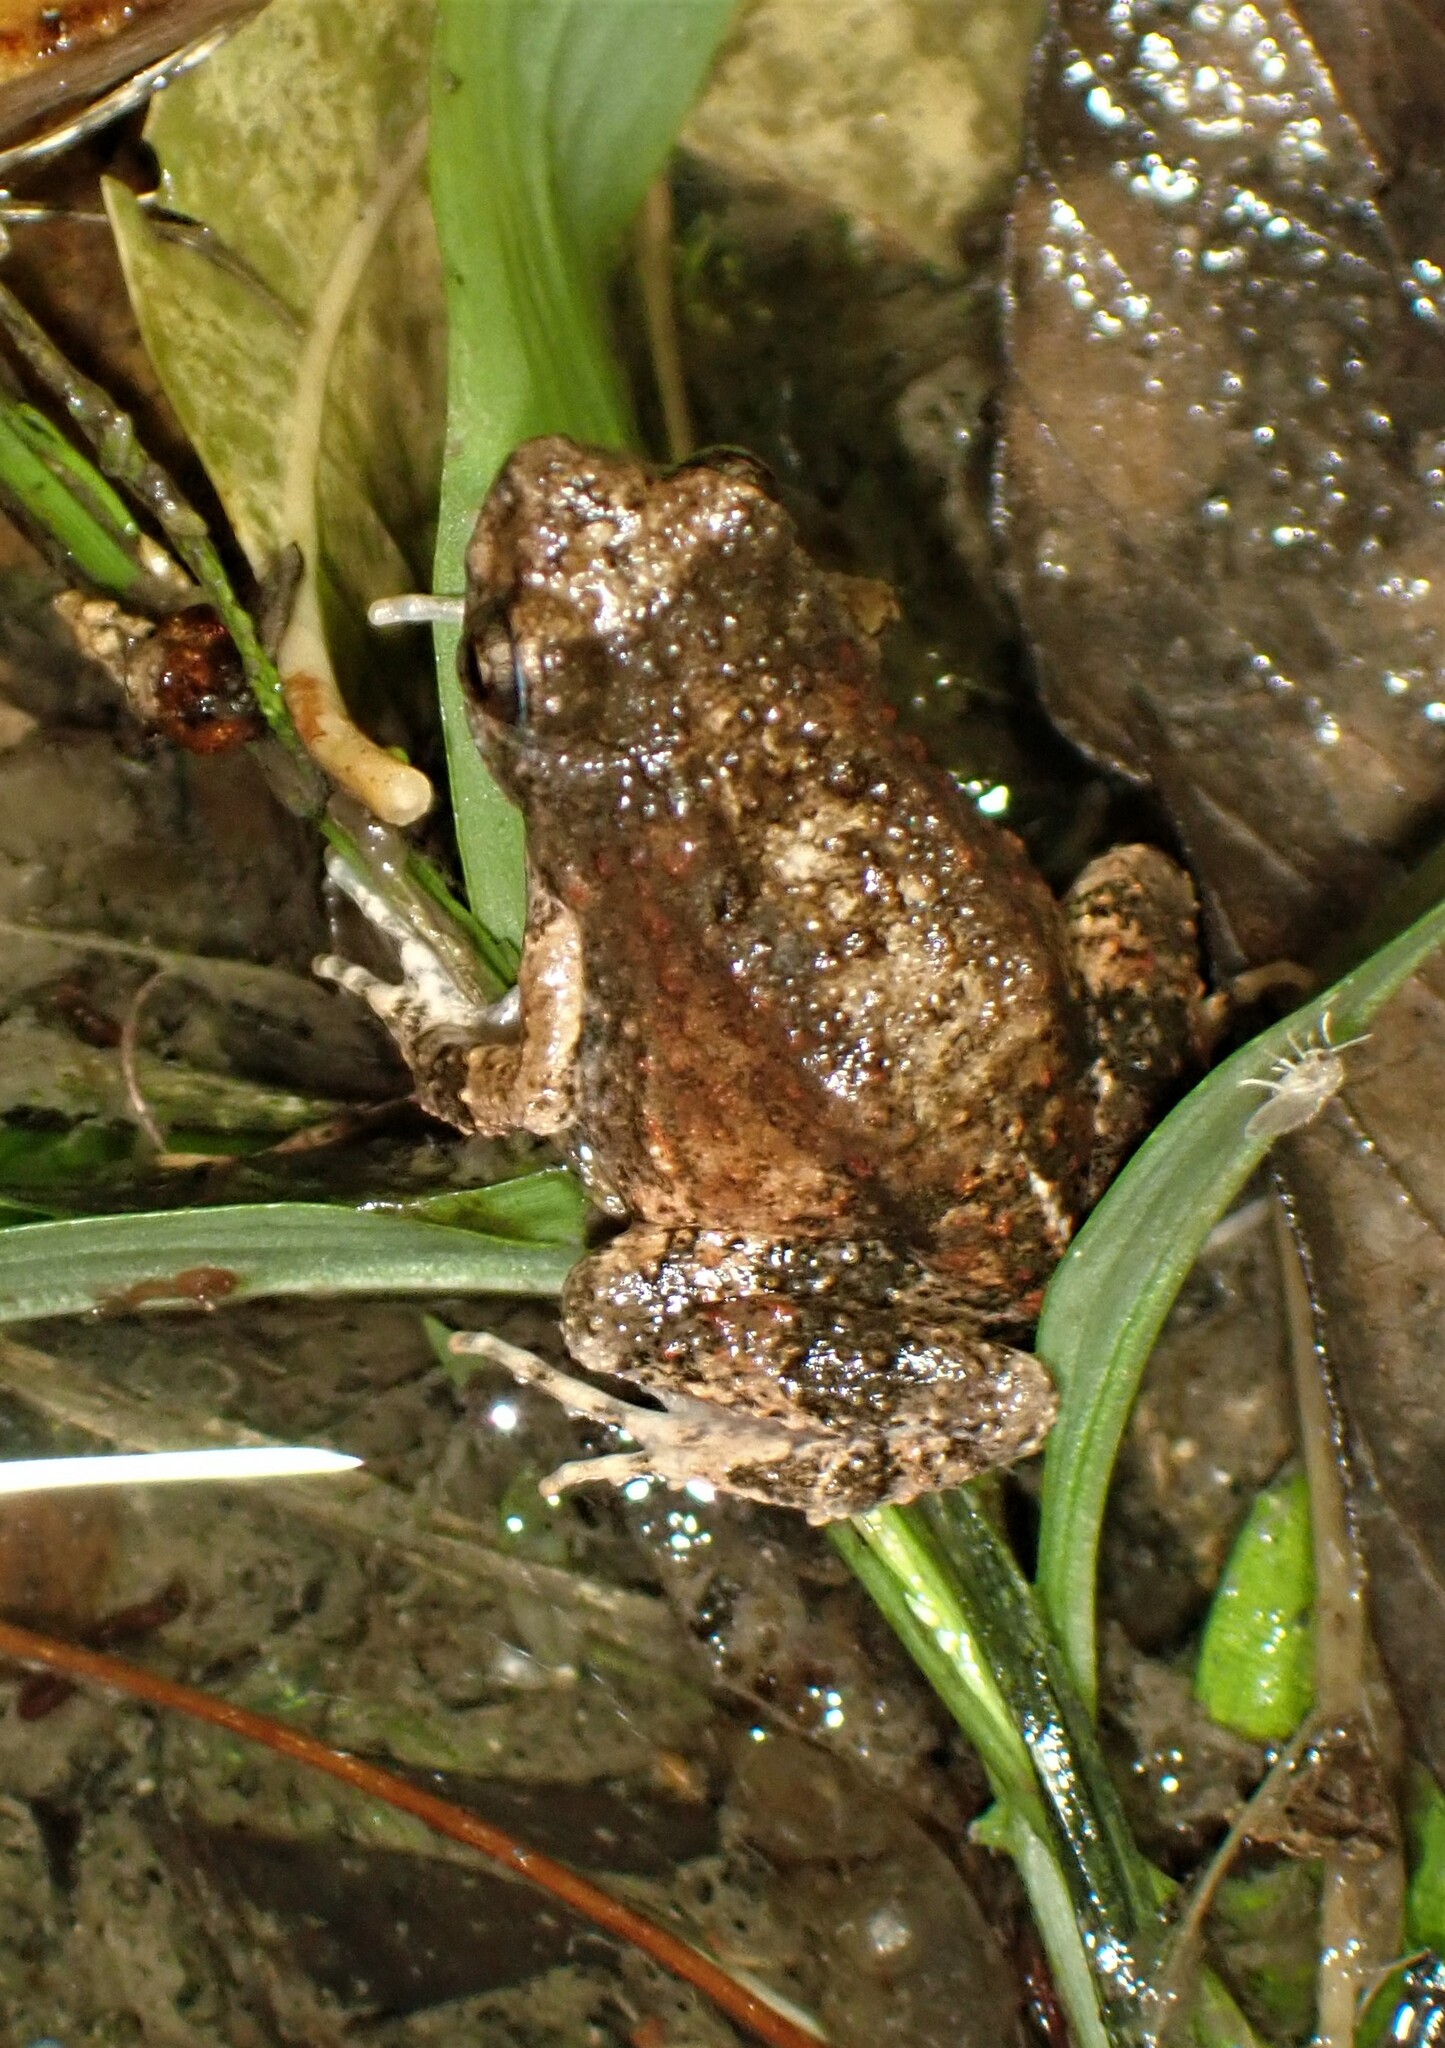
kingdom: Animalia
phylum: Chordata
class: Amphibia
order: Anura
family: Leptodactylidae
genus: Engystomops
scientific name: Engystomops pustulosus
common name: Tungara frog
